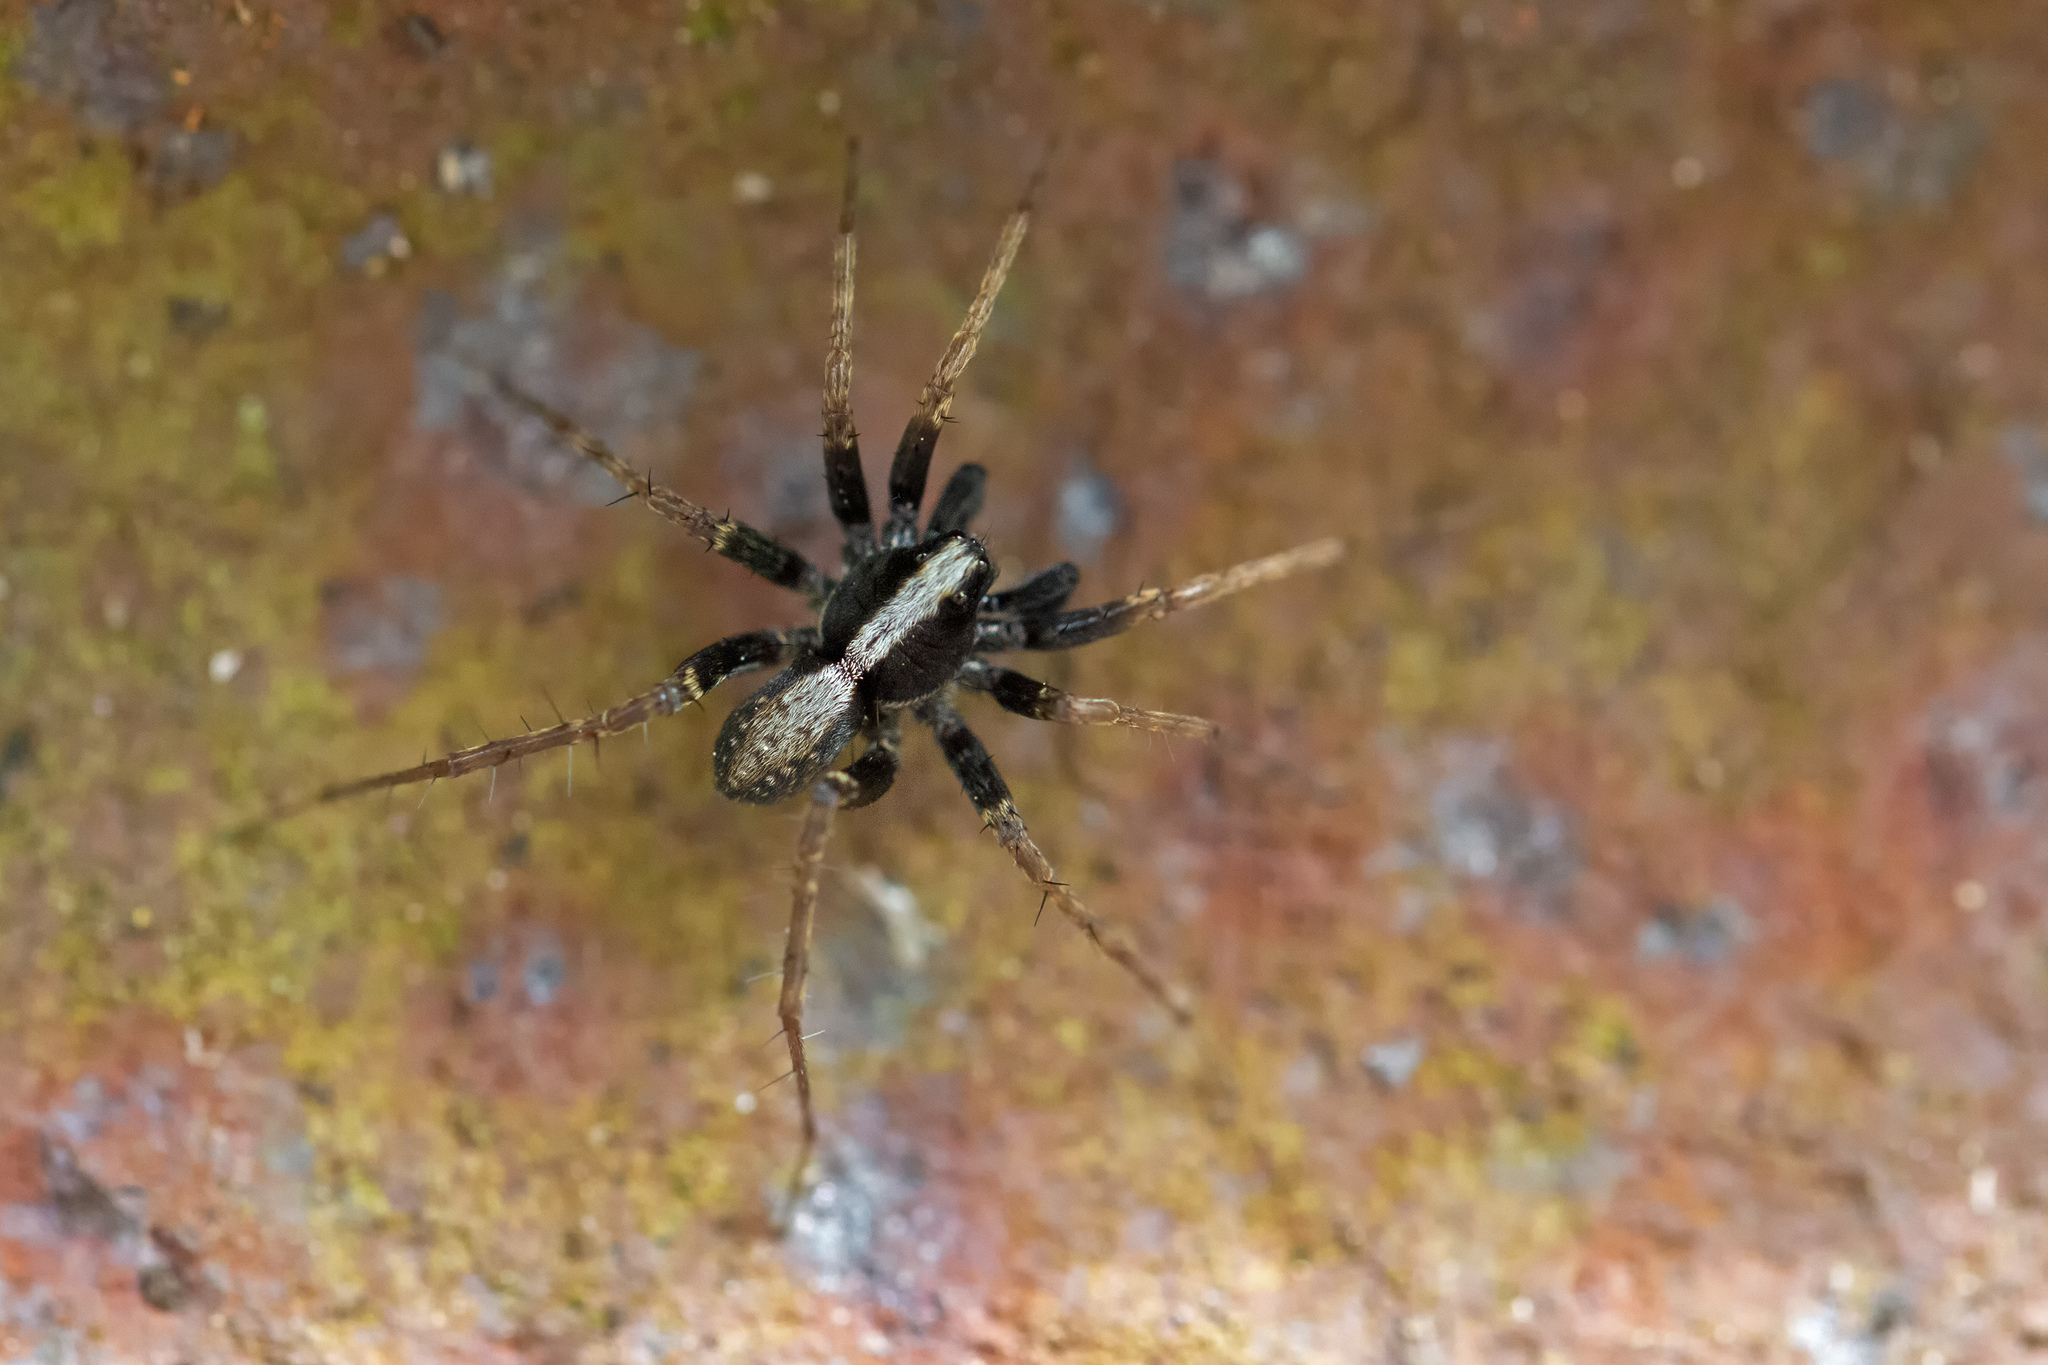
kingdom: Animalia
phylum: Arthropoda
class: Arachnida
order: Araneae
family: Lycosidae
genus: Pardosa
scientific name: Pardosa saltans
